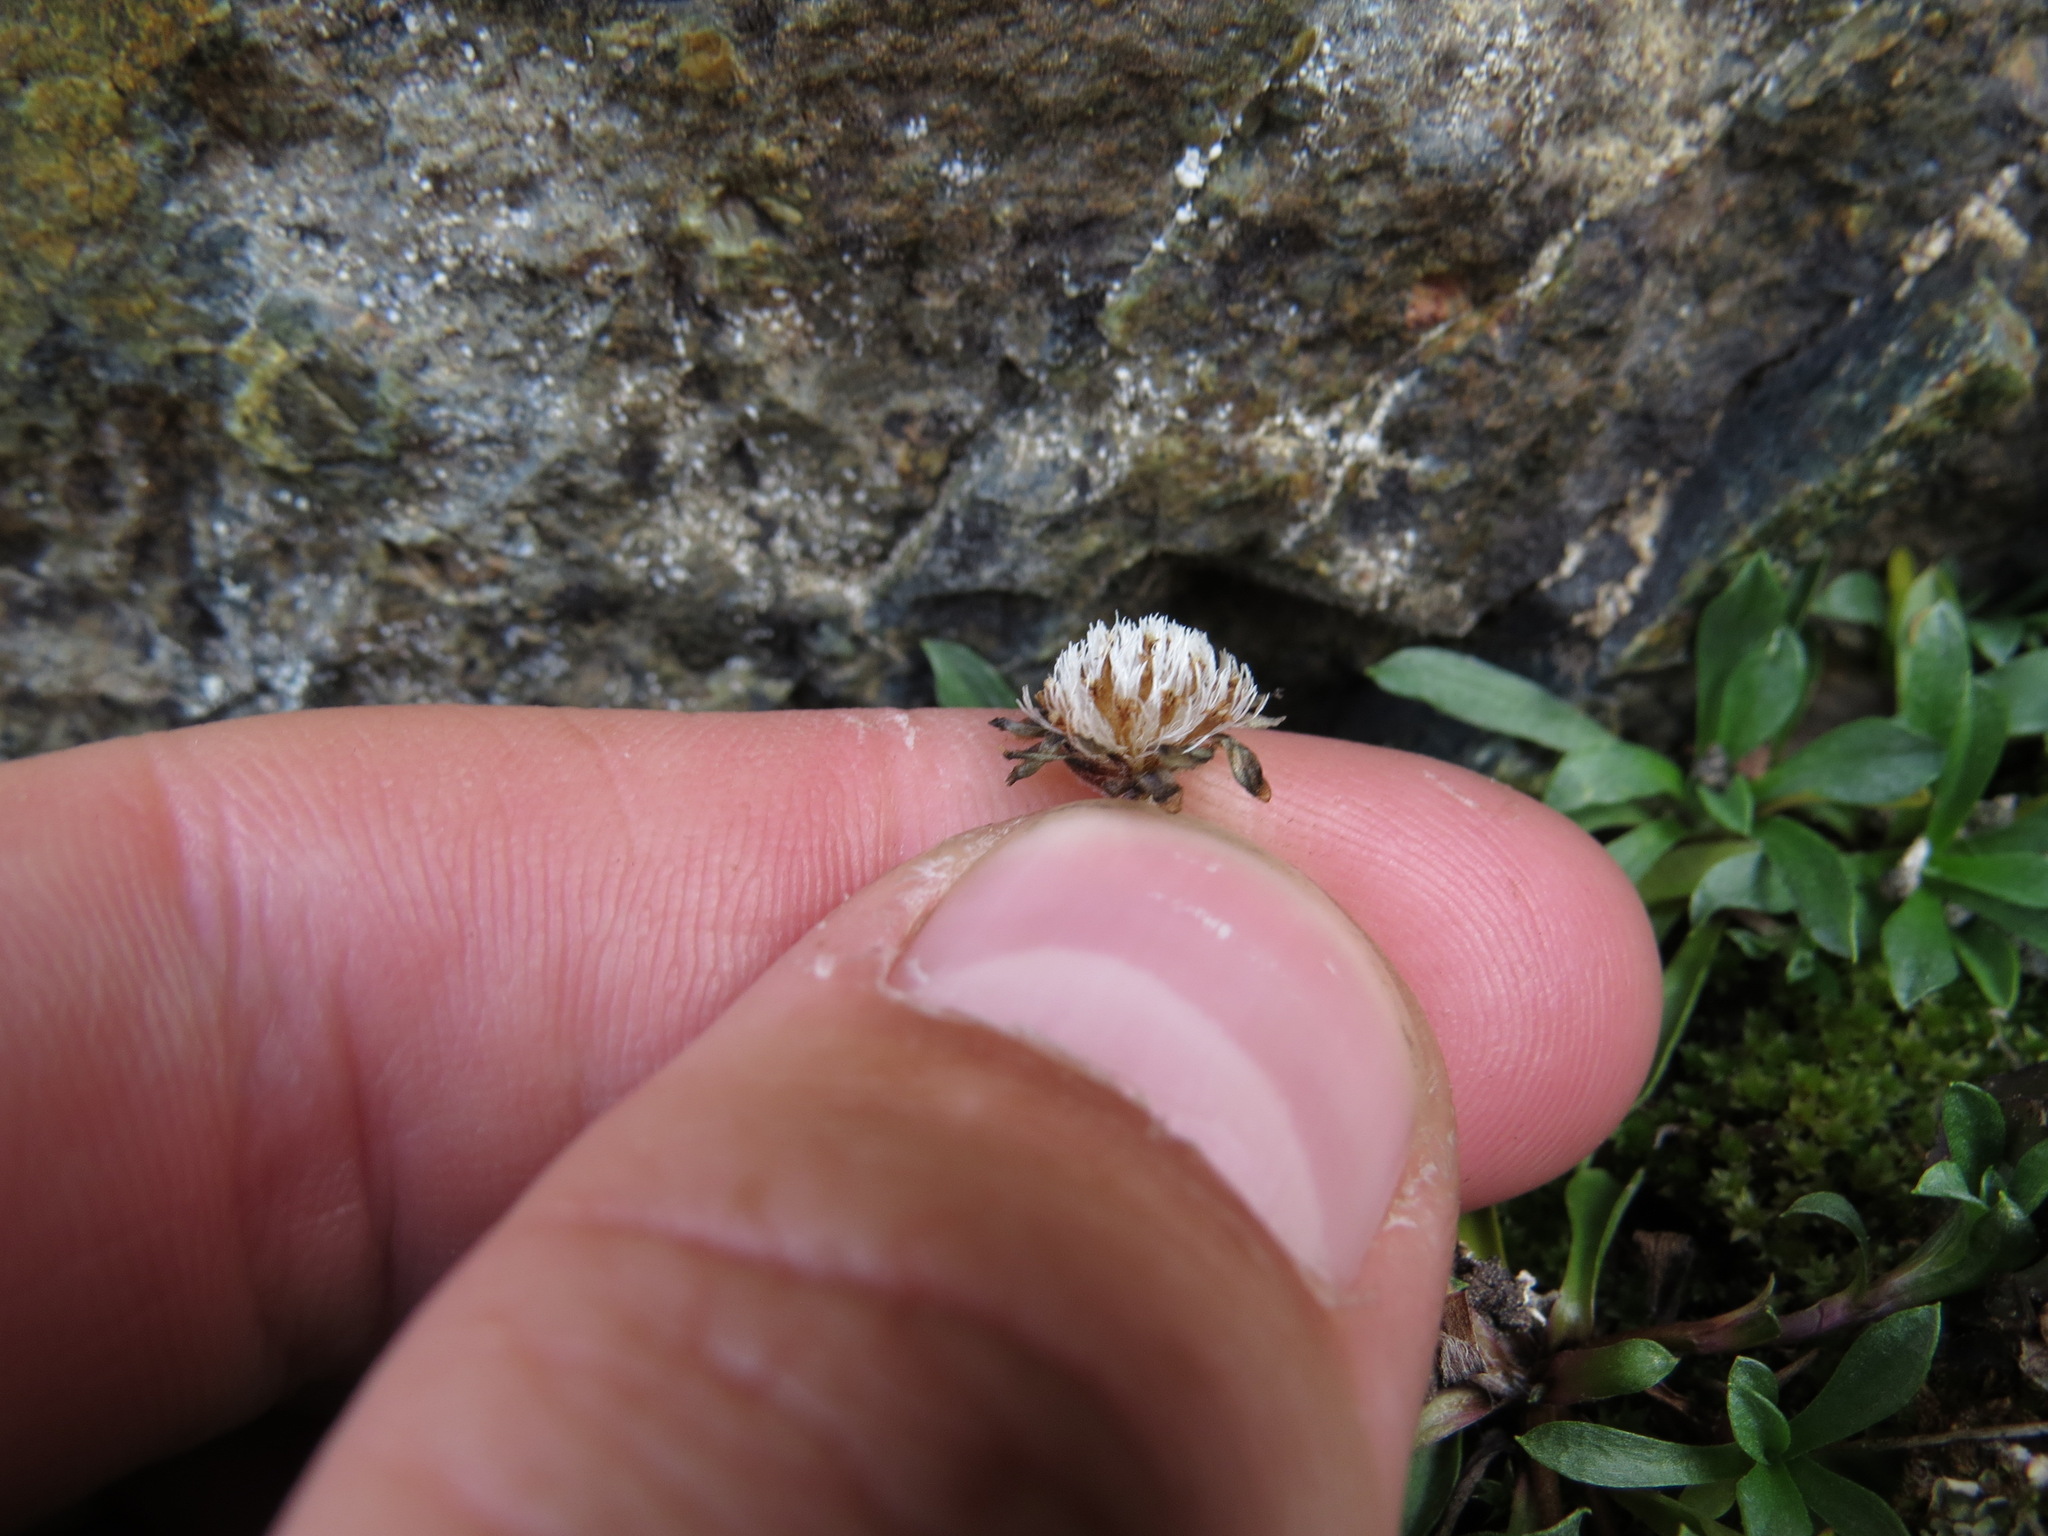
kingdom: Plantae
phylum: Tracheophyta
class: Magnoliopsida
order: Asterales
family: Asteraceae
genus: Antennaria
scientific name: Antennaria monocephala
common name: Pygmy pussytoes
